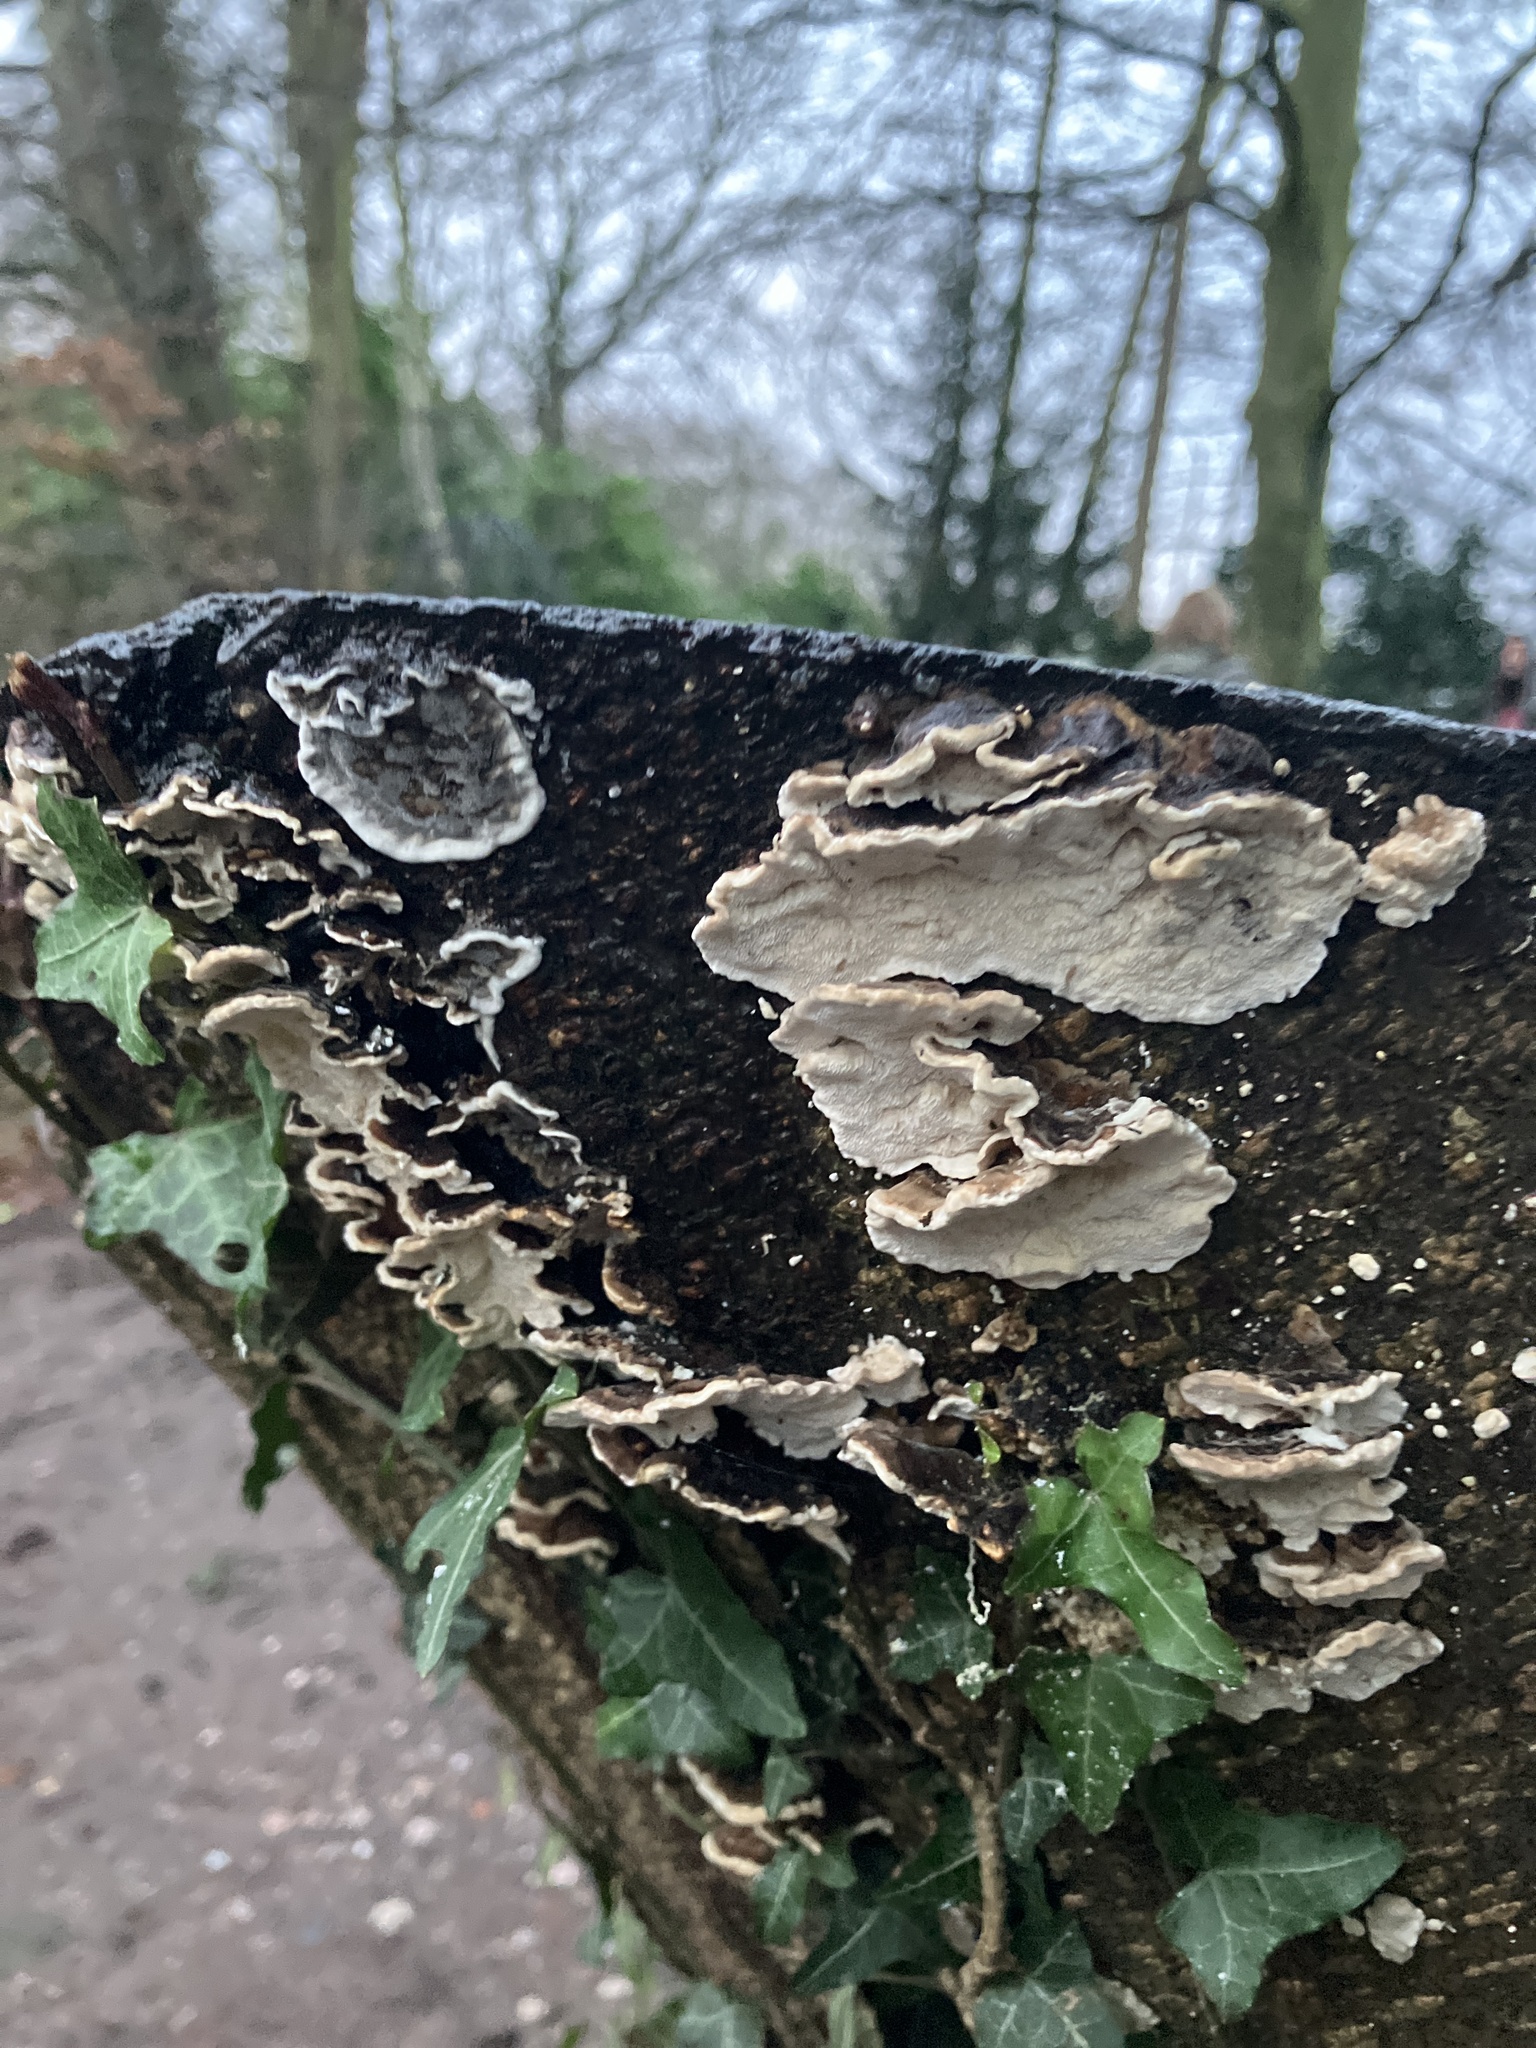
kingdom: Fungi
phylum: Basidiomycota
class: Agaricomycetes
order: Polyporales
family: Phanerochaetaceae
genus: Bjerkandera
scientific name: Bjerkandera adusta
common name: Smoky bracket
